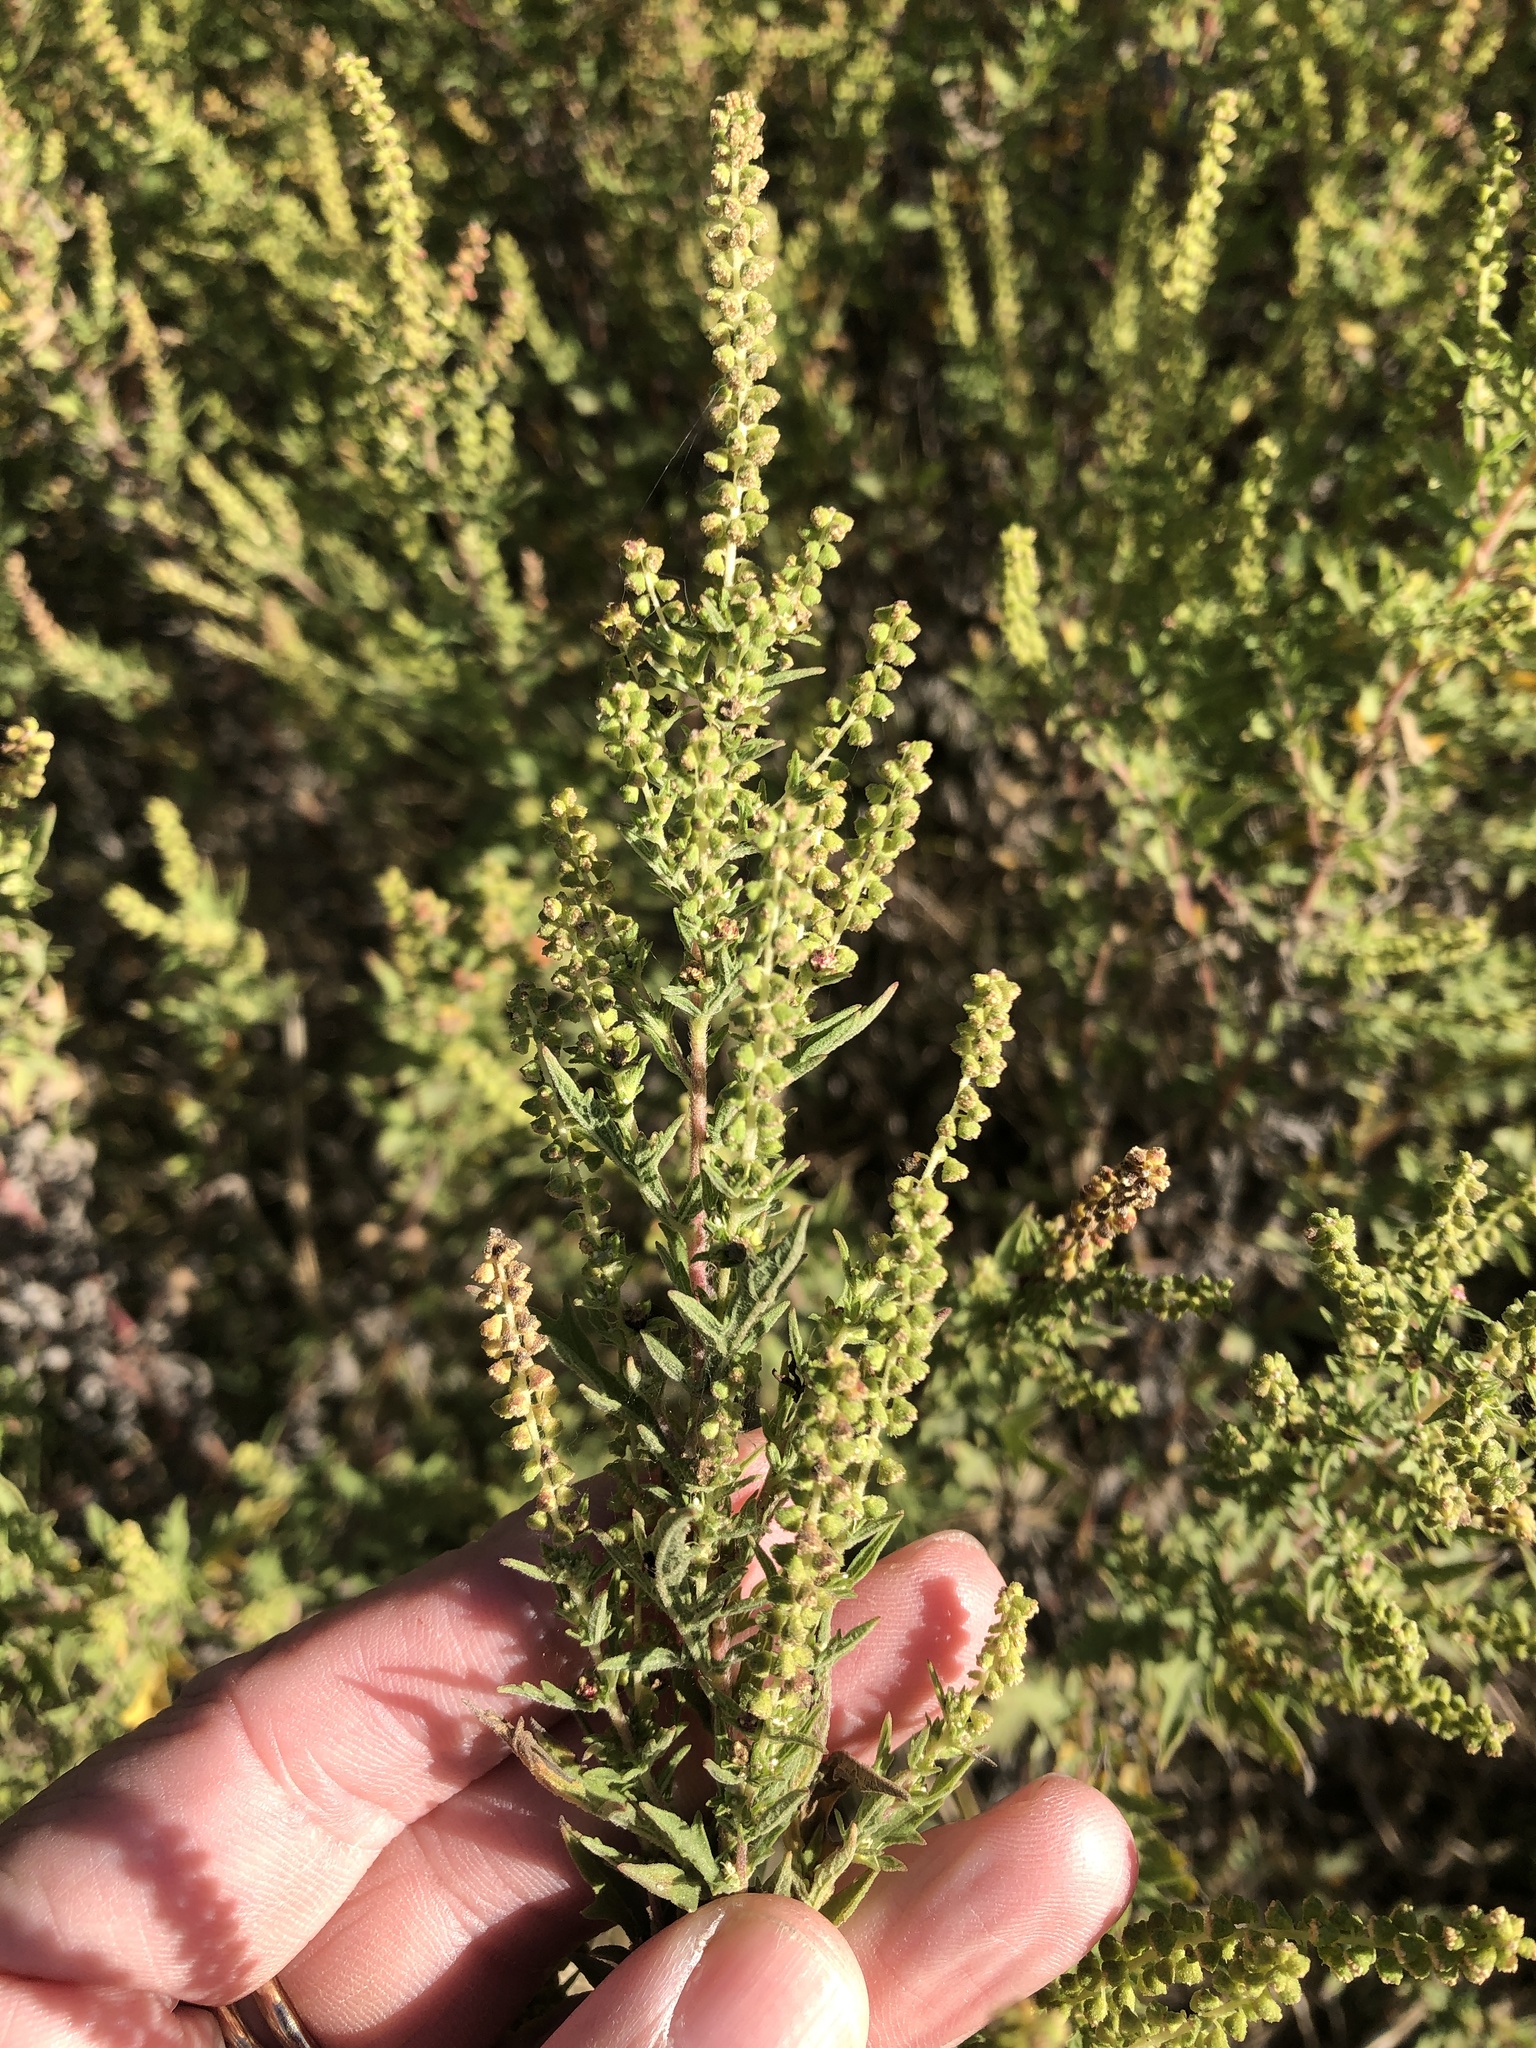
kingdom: Plantae
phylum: Tracheophyta
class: Magnoliopsida
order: Asterales
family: Asteraceae
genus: Ambrosia
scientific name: Ambrosia psilostachya
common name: Perennial ragweed
